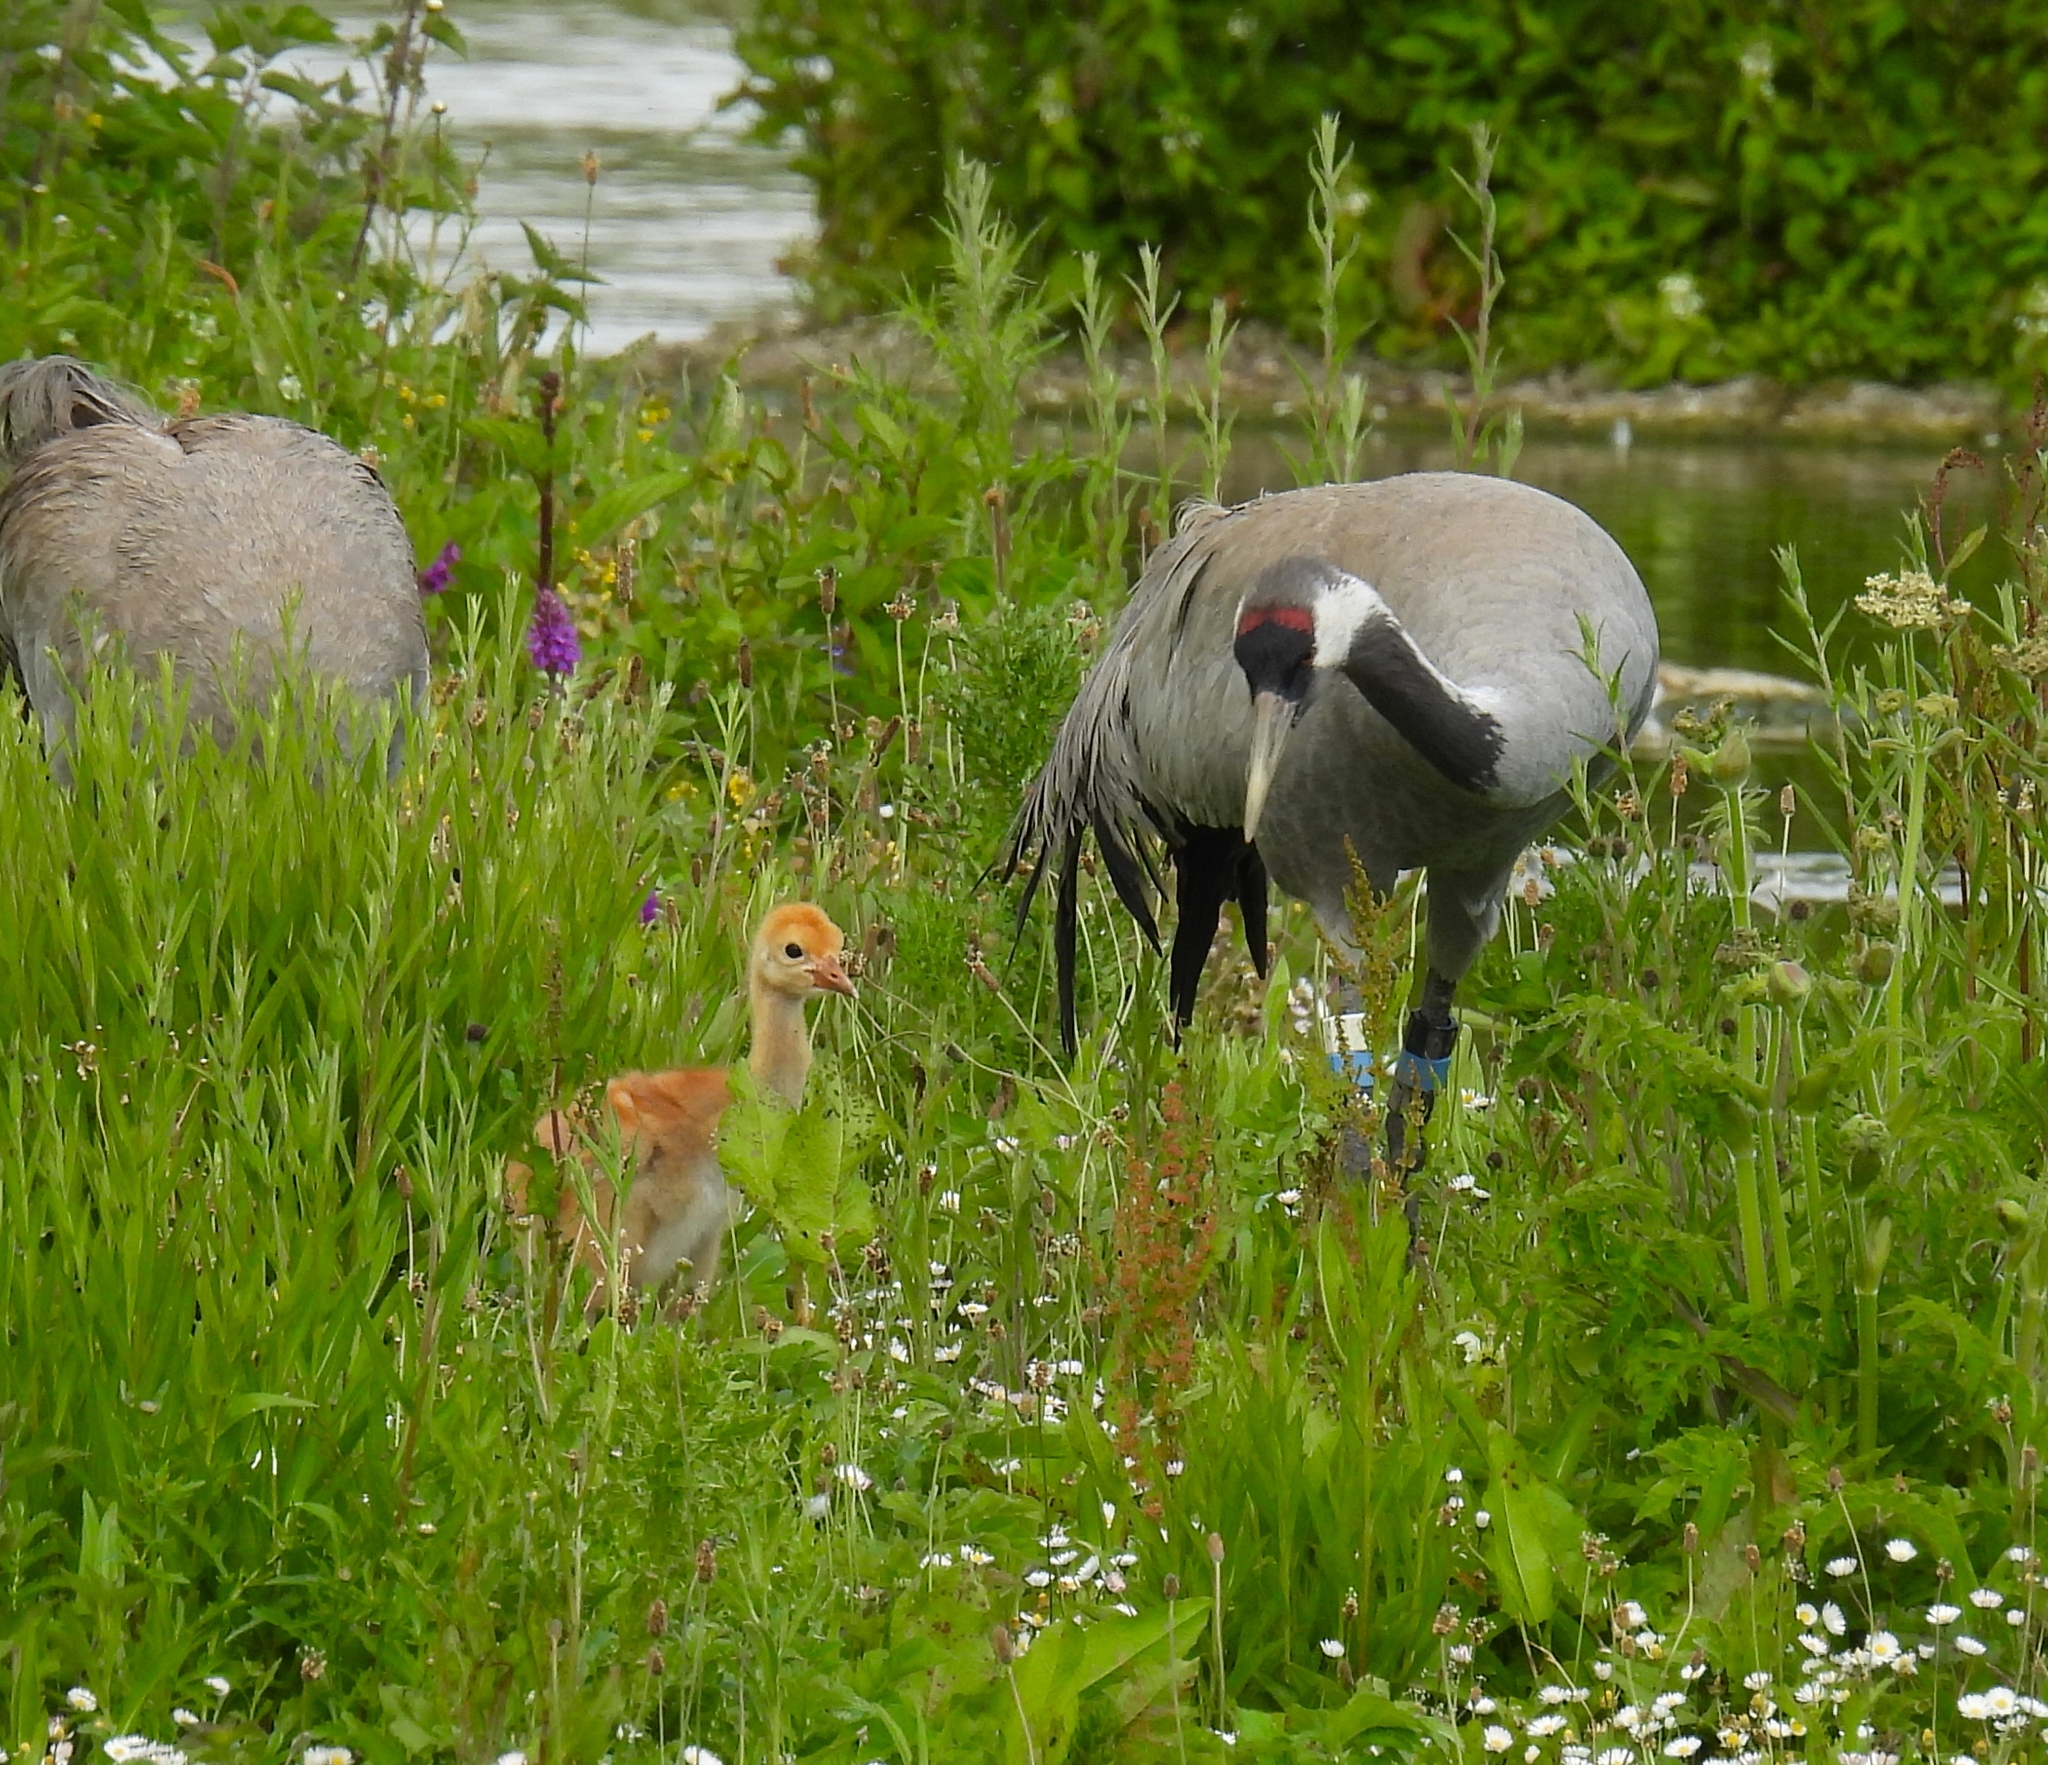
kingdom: Animalia
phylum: Chordata
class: Aves
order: Gruiformes
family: Gruidae
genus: Grus
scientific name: Grus grus
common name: Common crane
